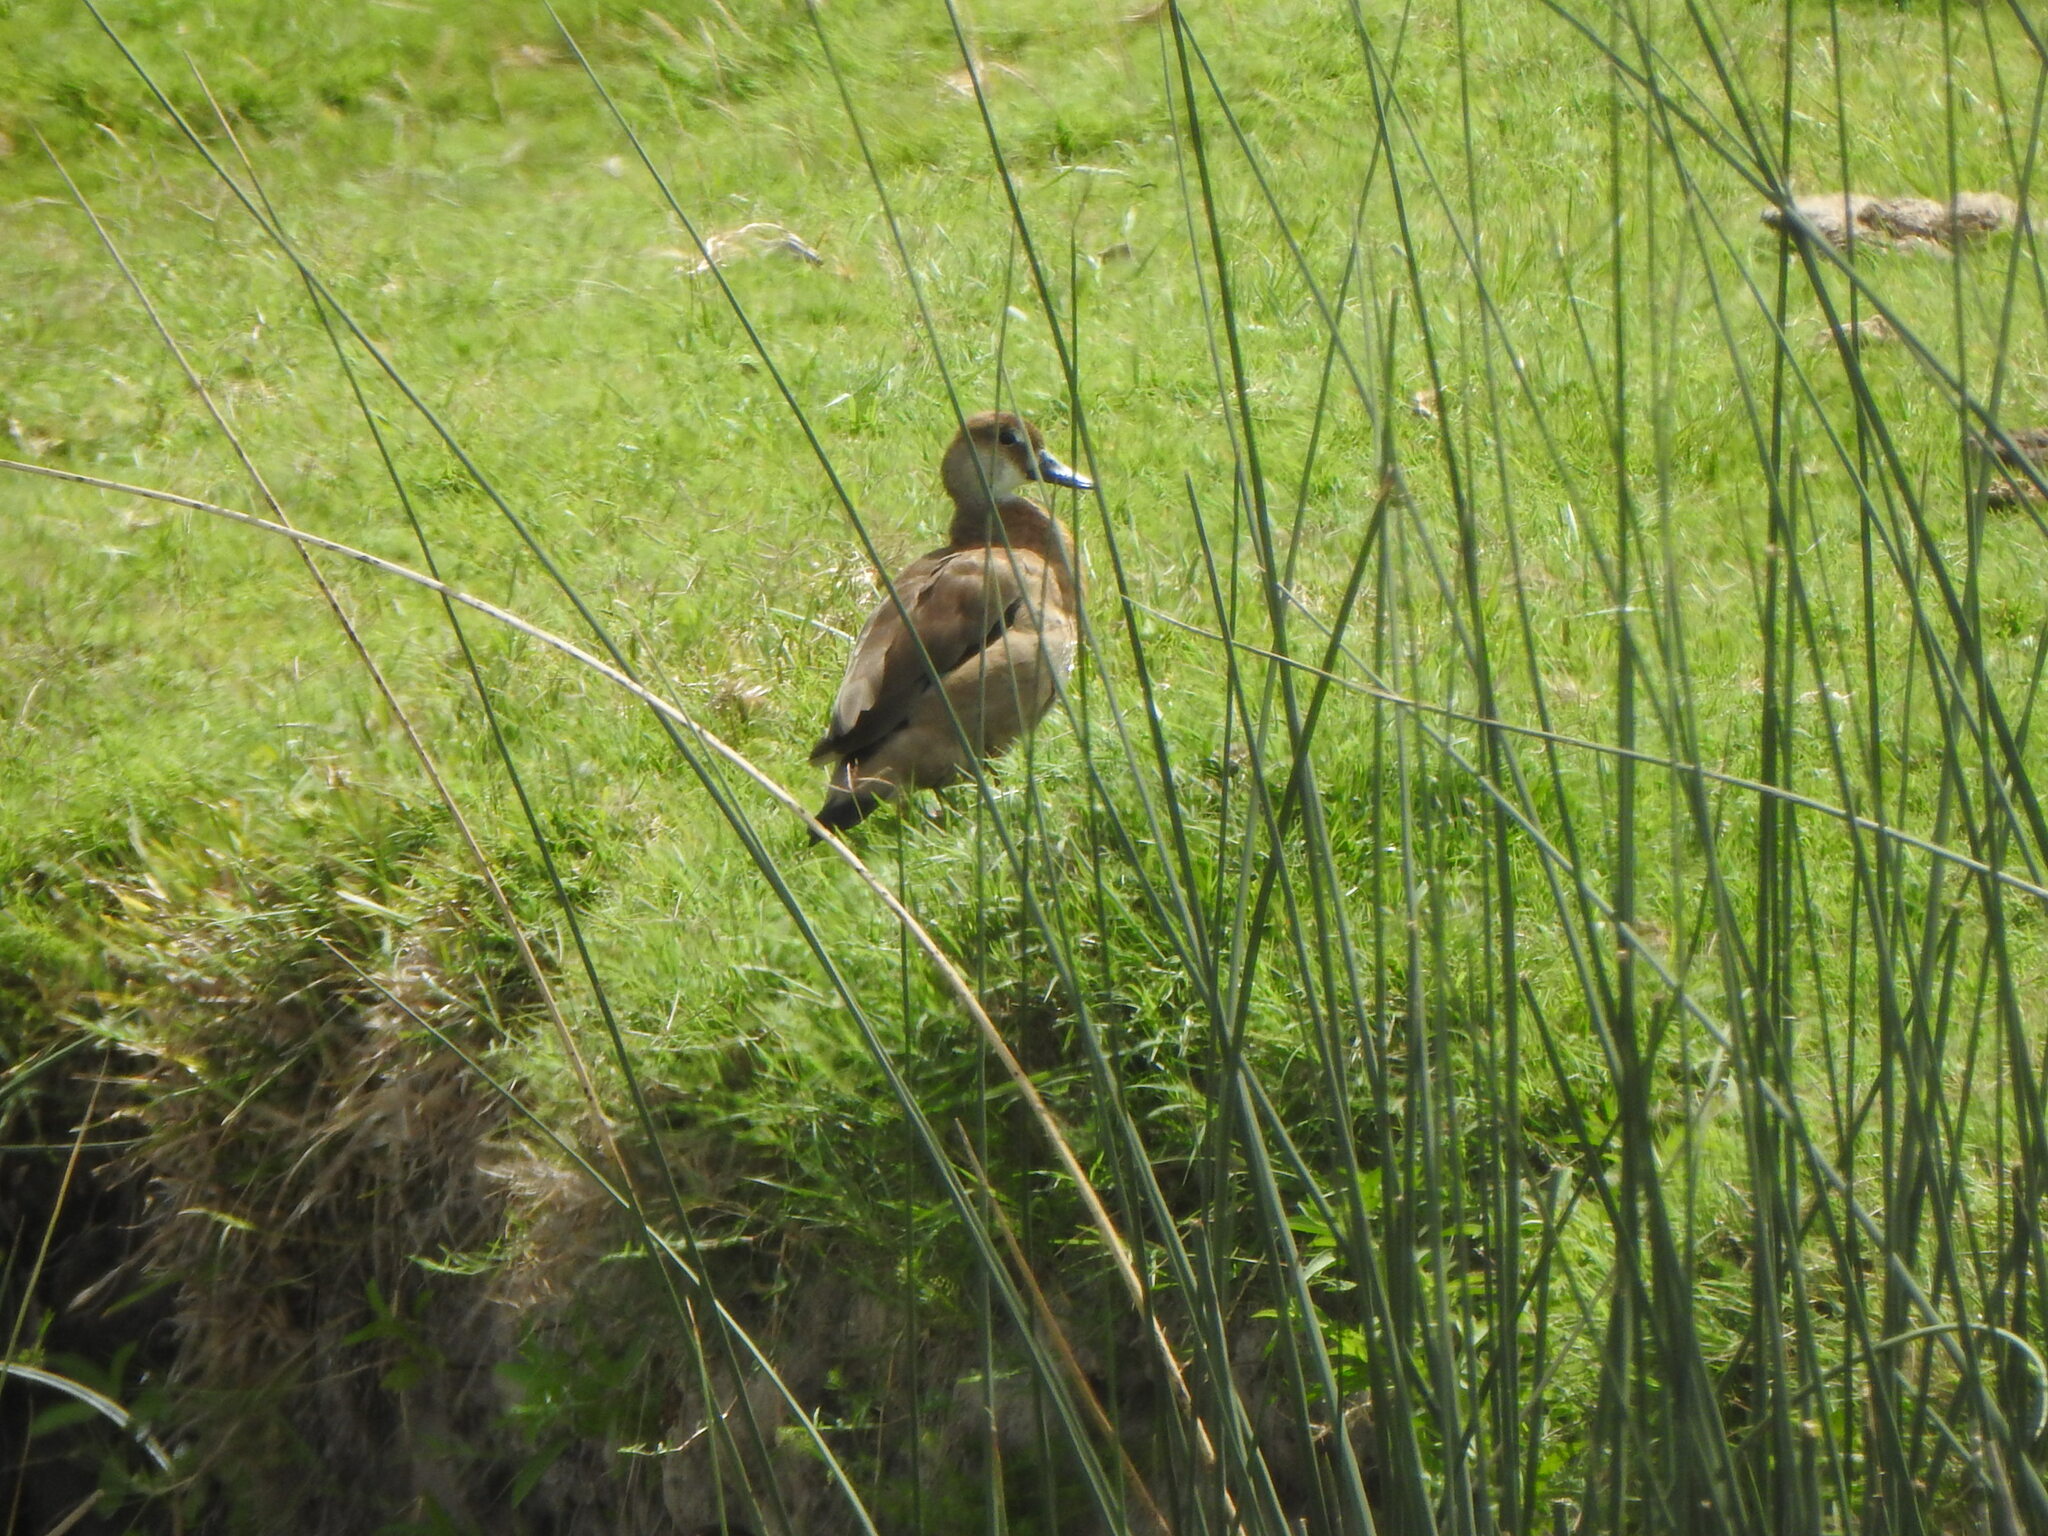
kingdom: Animalia
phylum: Chordata
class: Aves
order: Anseriformes
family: Anatidae
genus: Amazonetta
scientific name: Amazonetta brasiliensis
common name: Brazilian teal
